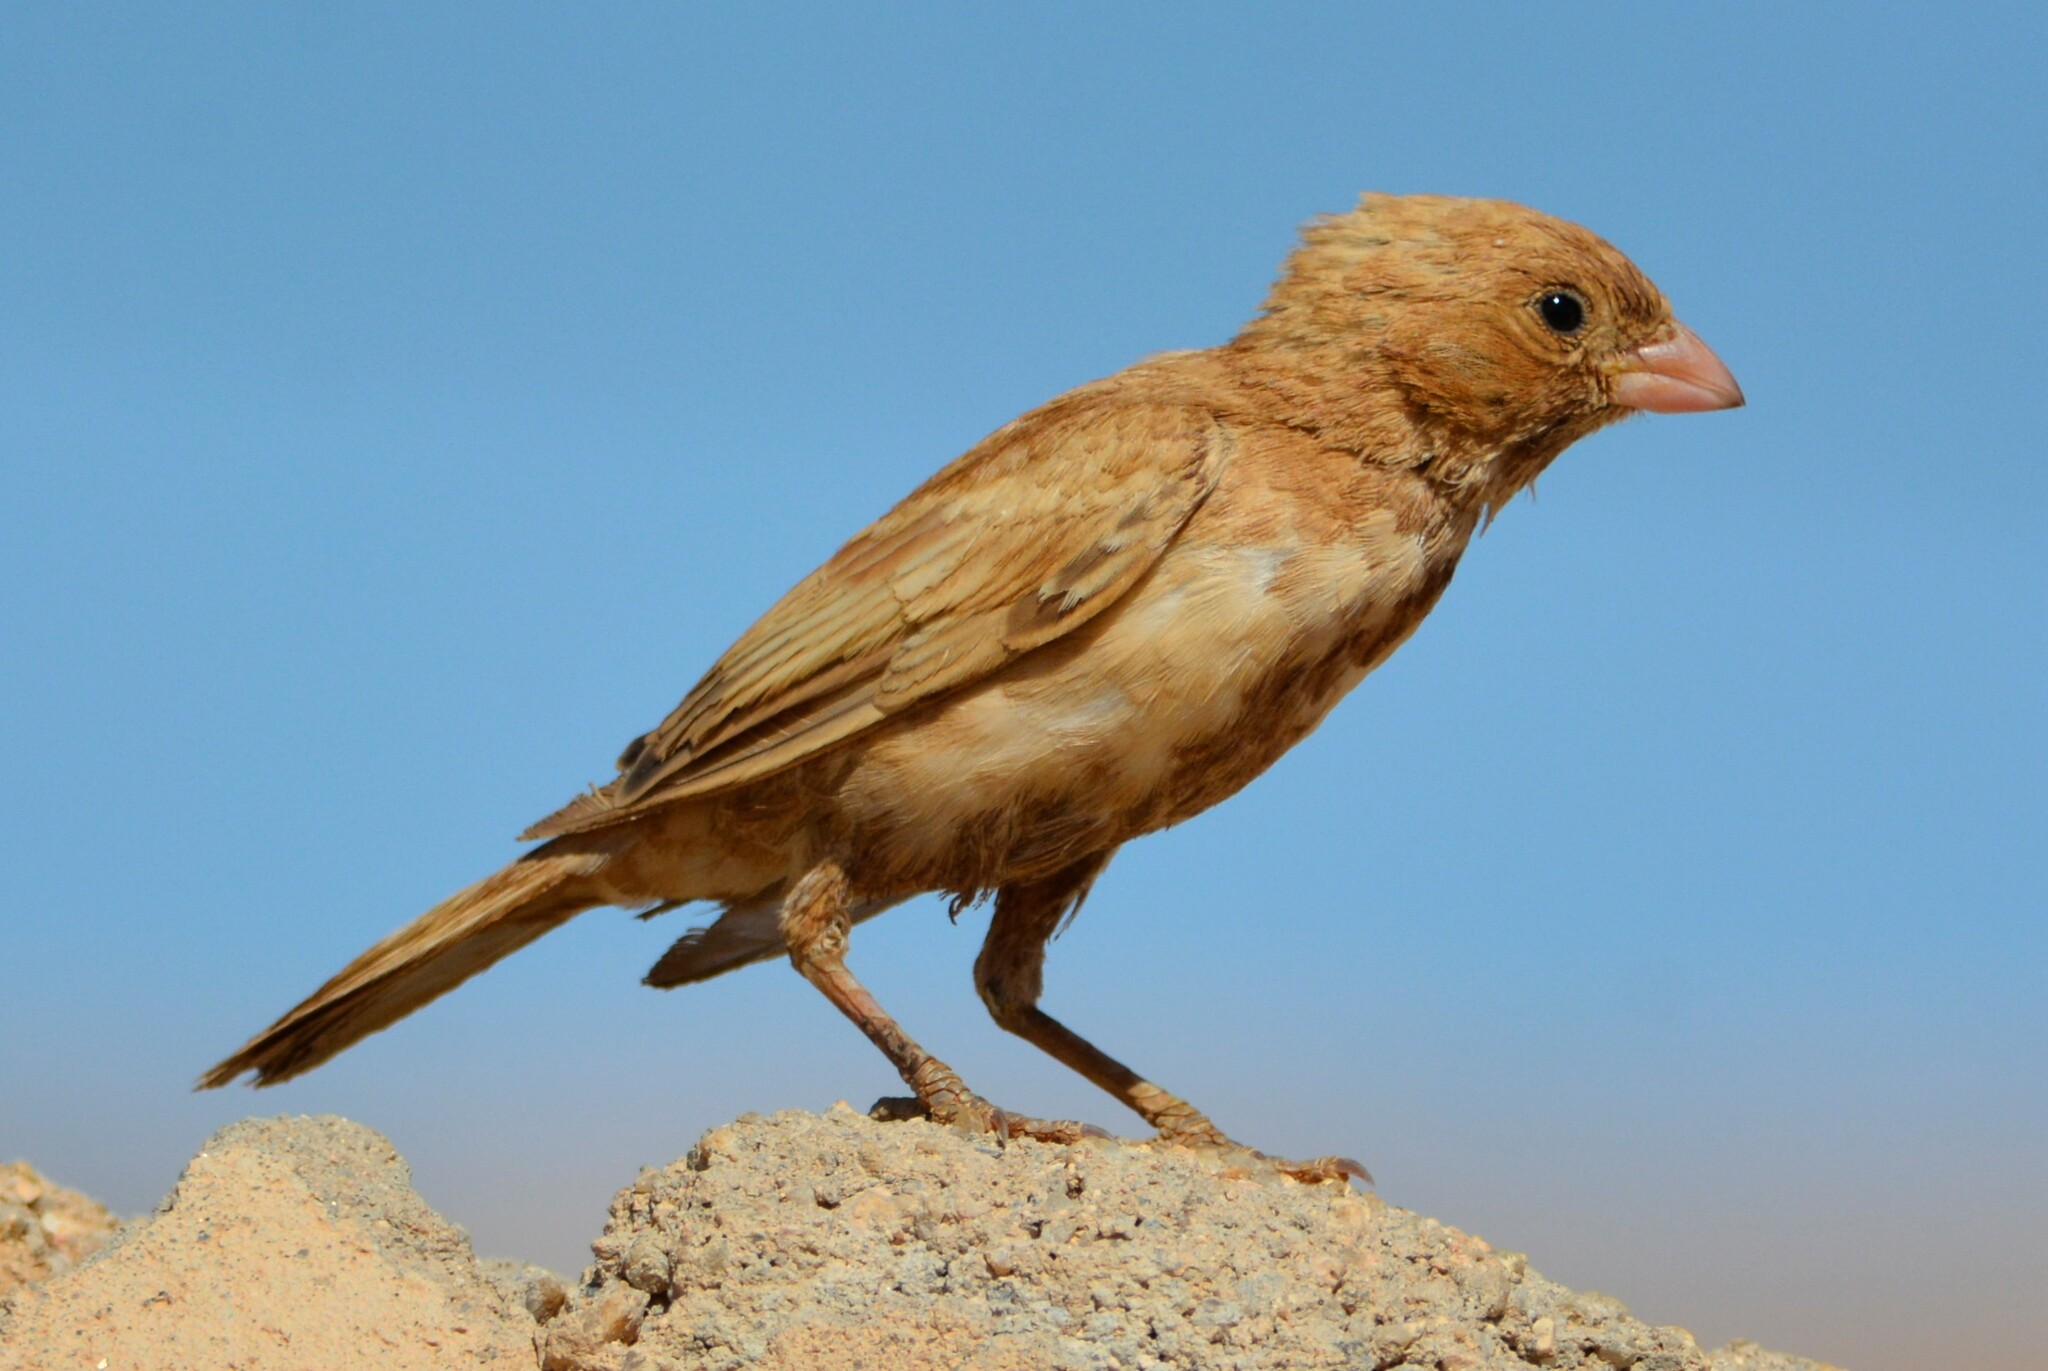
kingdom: Animalia
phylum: Chordata
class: Aves
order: Passeriformes
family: Fringillidae
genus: Bucanetes
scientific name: Bucanetes githagineus
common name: Trumpeter finch
